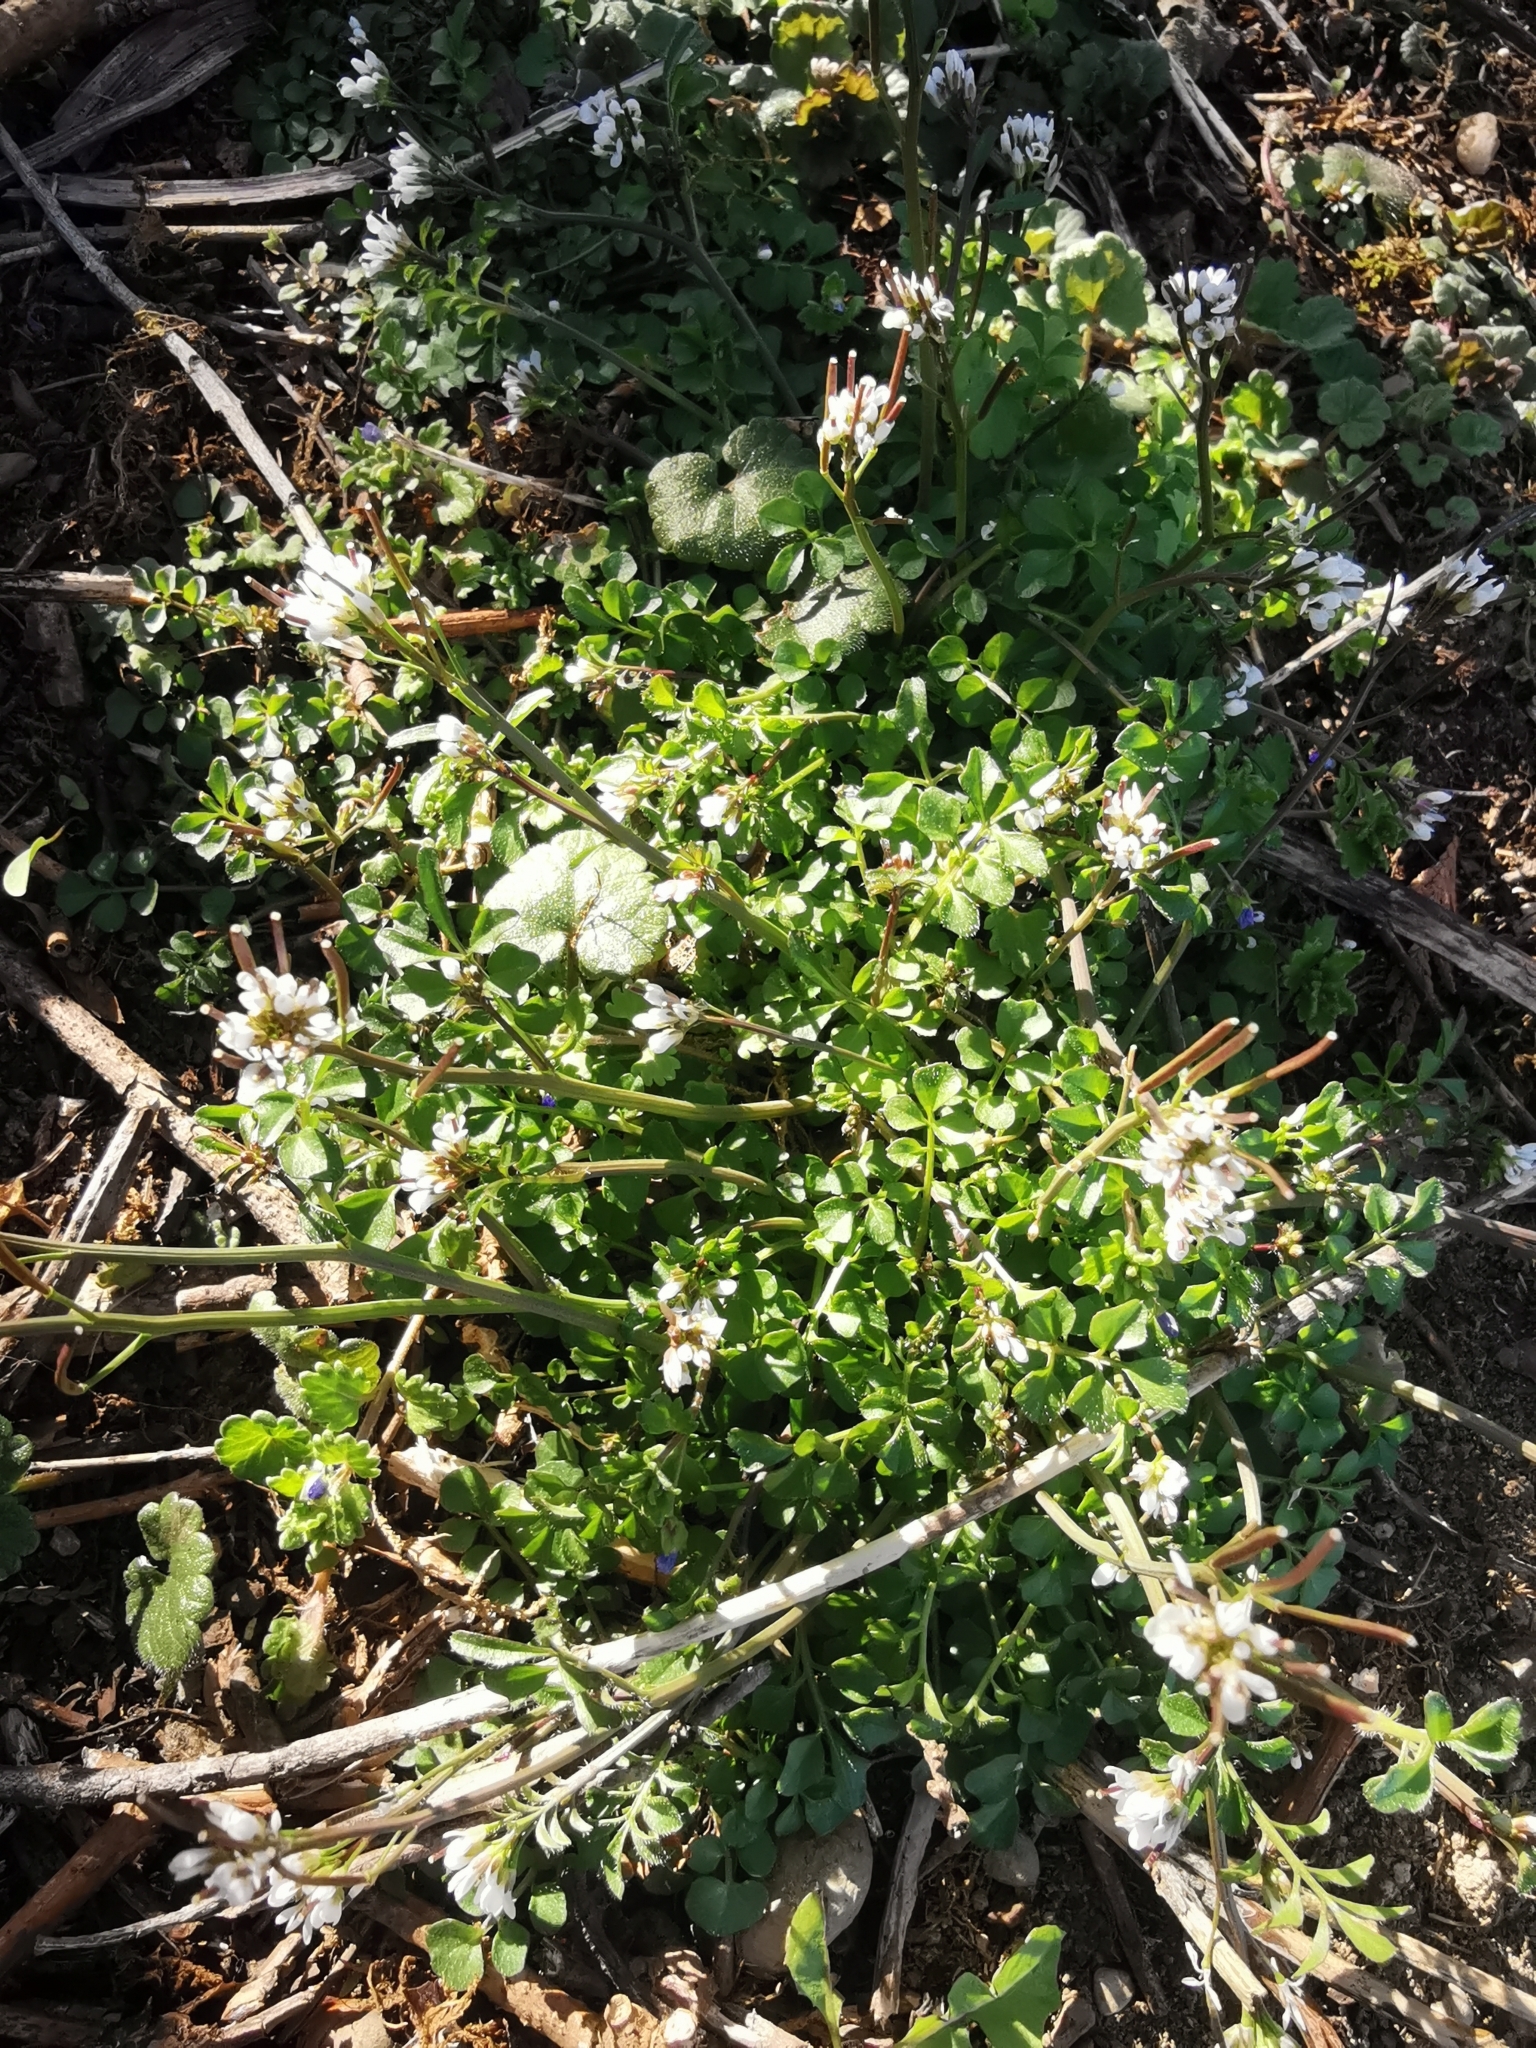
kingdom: Plantae
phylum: Tracheophyta
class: Magnoliopsida
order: Brassicales
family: Brassicaceae
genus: Cardamine
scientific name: Cardamine hirsuta
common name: Hairy bittercress
